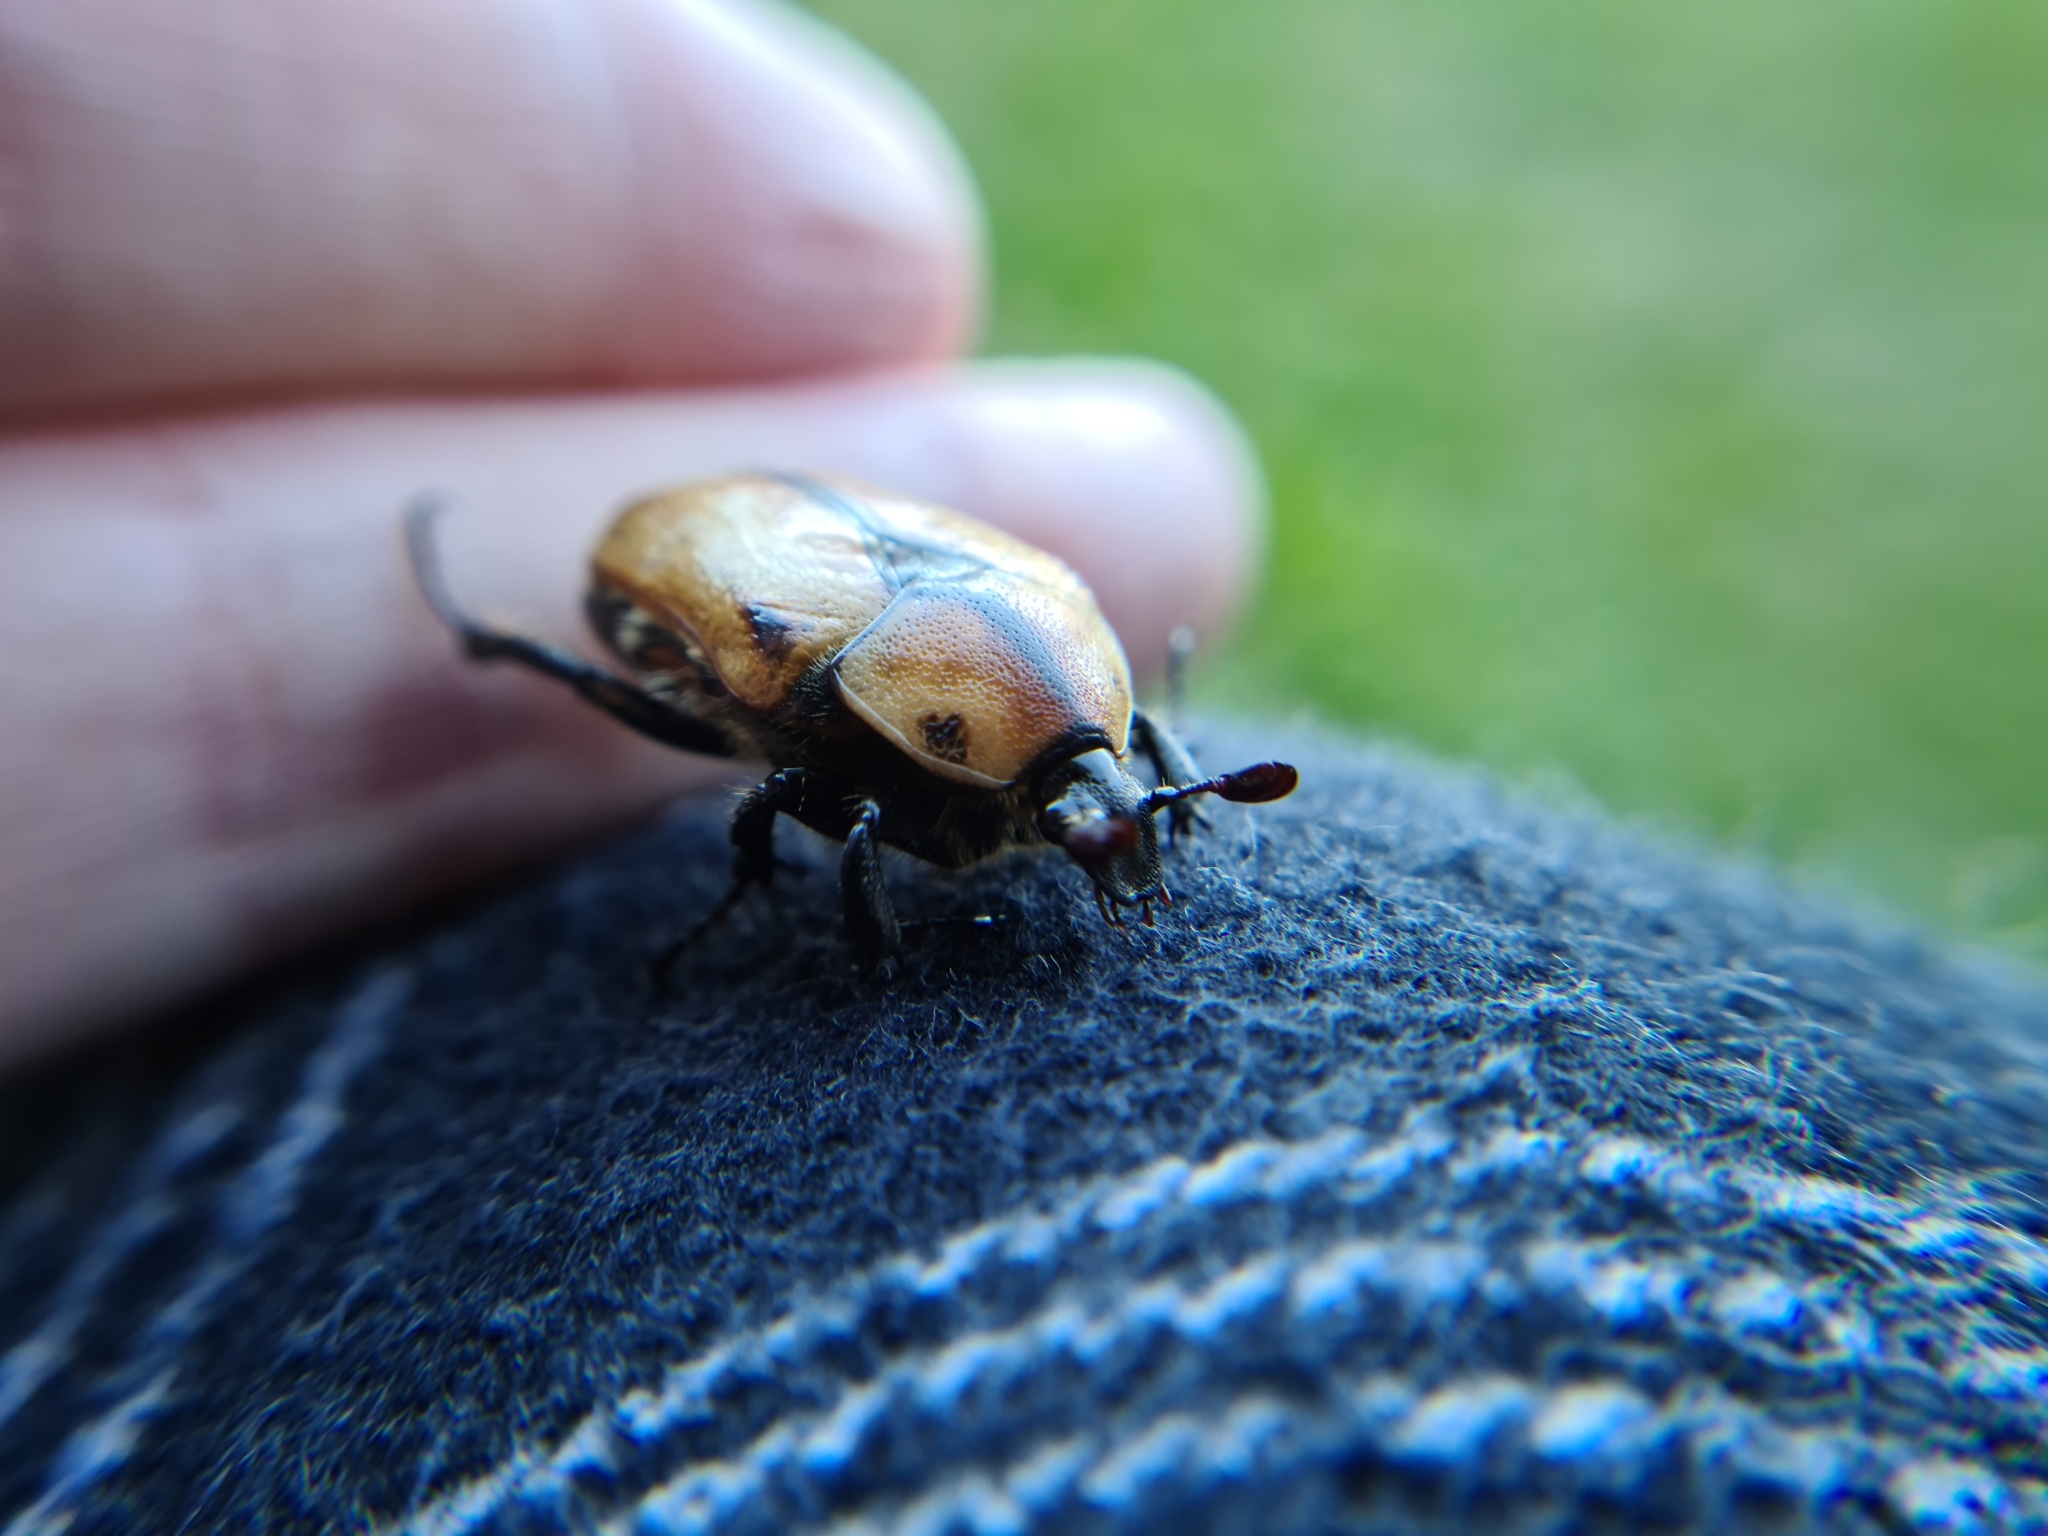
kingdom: Animalia
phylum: Arthropoda
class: Insecta
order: Coleoptera
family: Scarabaeidae
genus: Chondropyga
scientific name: Chondropyga dorsalis
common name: Cowboy beetle
